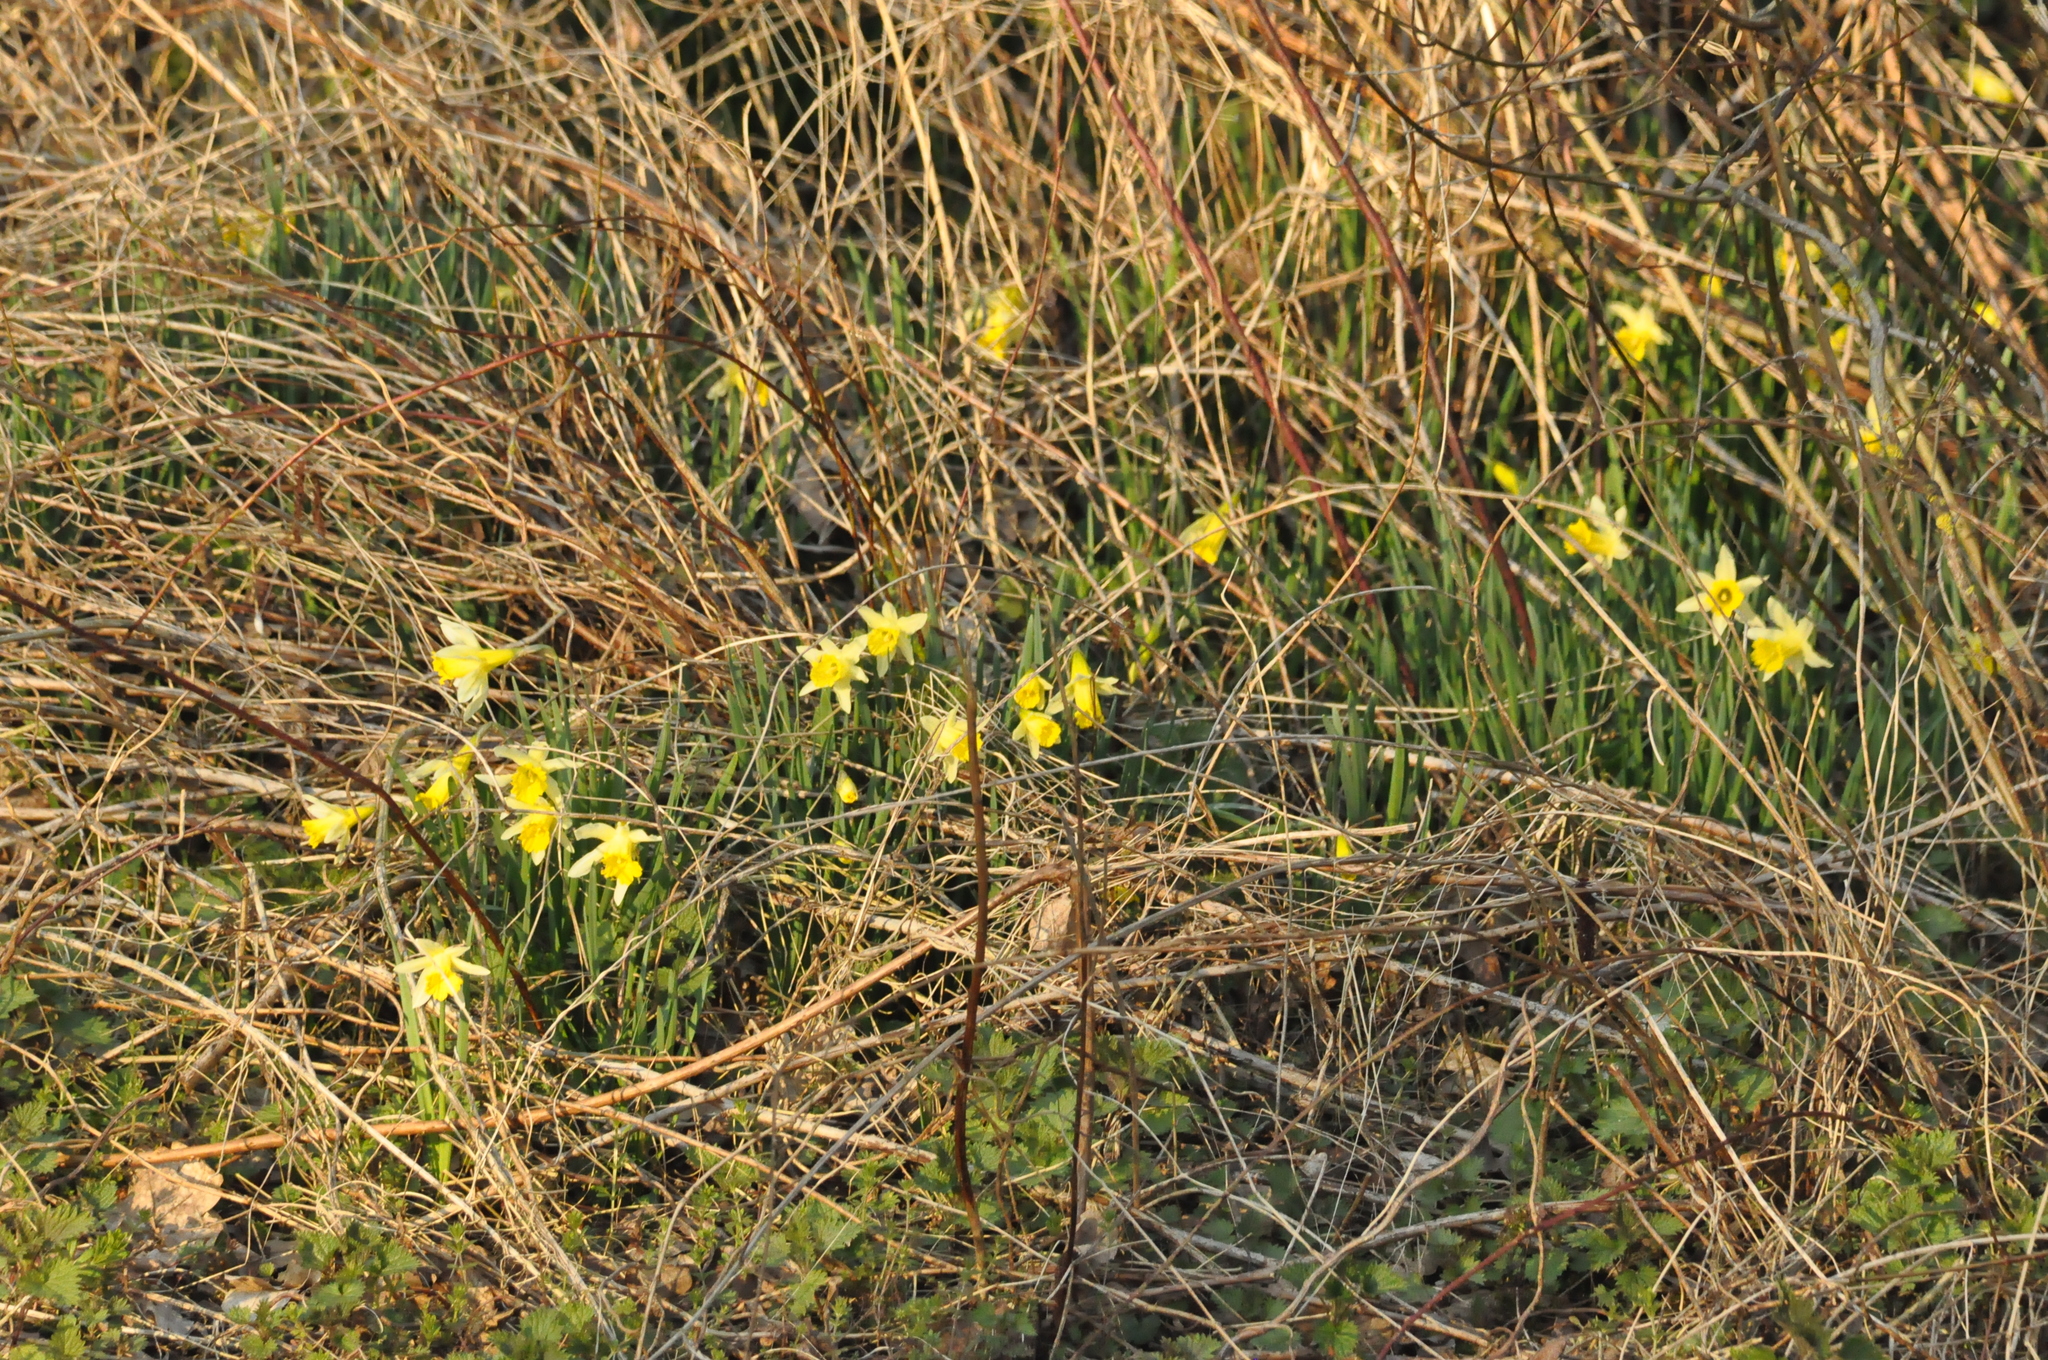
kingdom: Plantae
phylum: Tracheophyta
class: Liliopsida
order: Asparagales
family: Amaryllidaceae
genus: Narcissus
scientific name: Narcissus pseudonarcissus
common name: Daffodil
